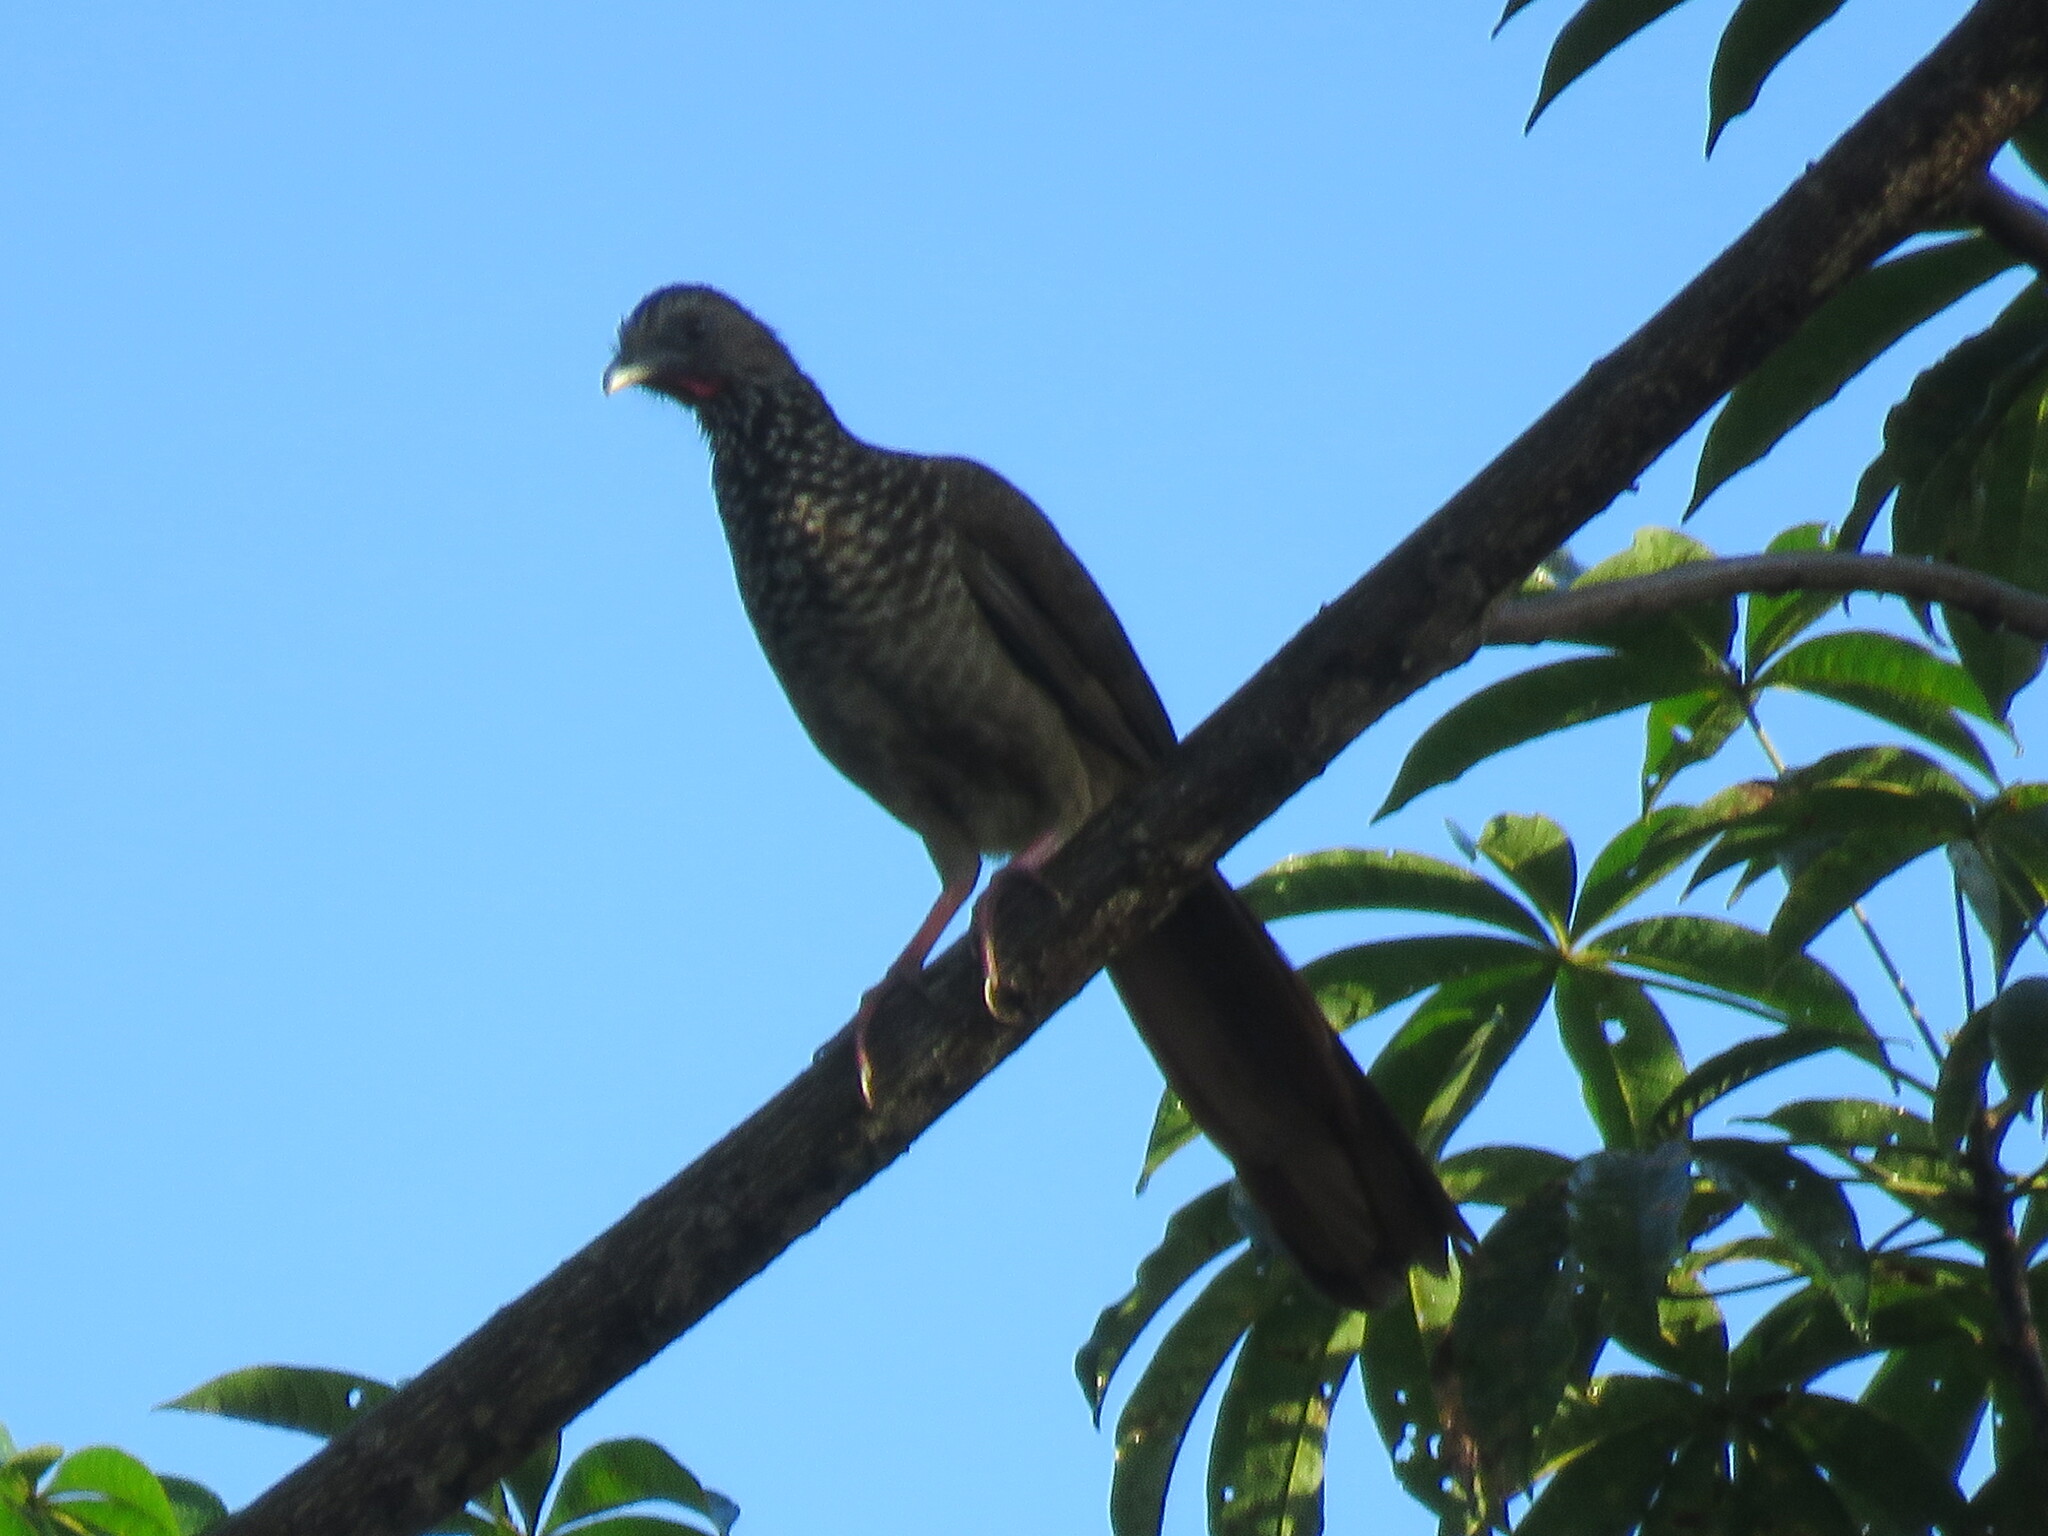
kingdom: Animalia
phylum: Chordata
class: Aves
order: Galliformes
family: Cracidae
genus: Ortalis
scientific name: Ortalis guttata
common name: Speckled chachalaca
